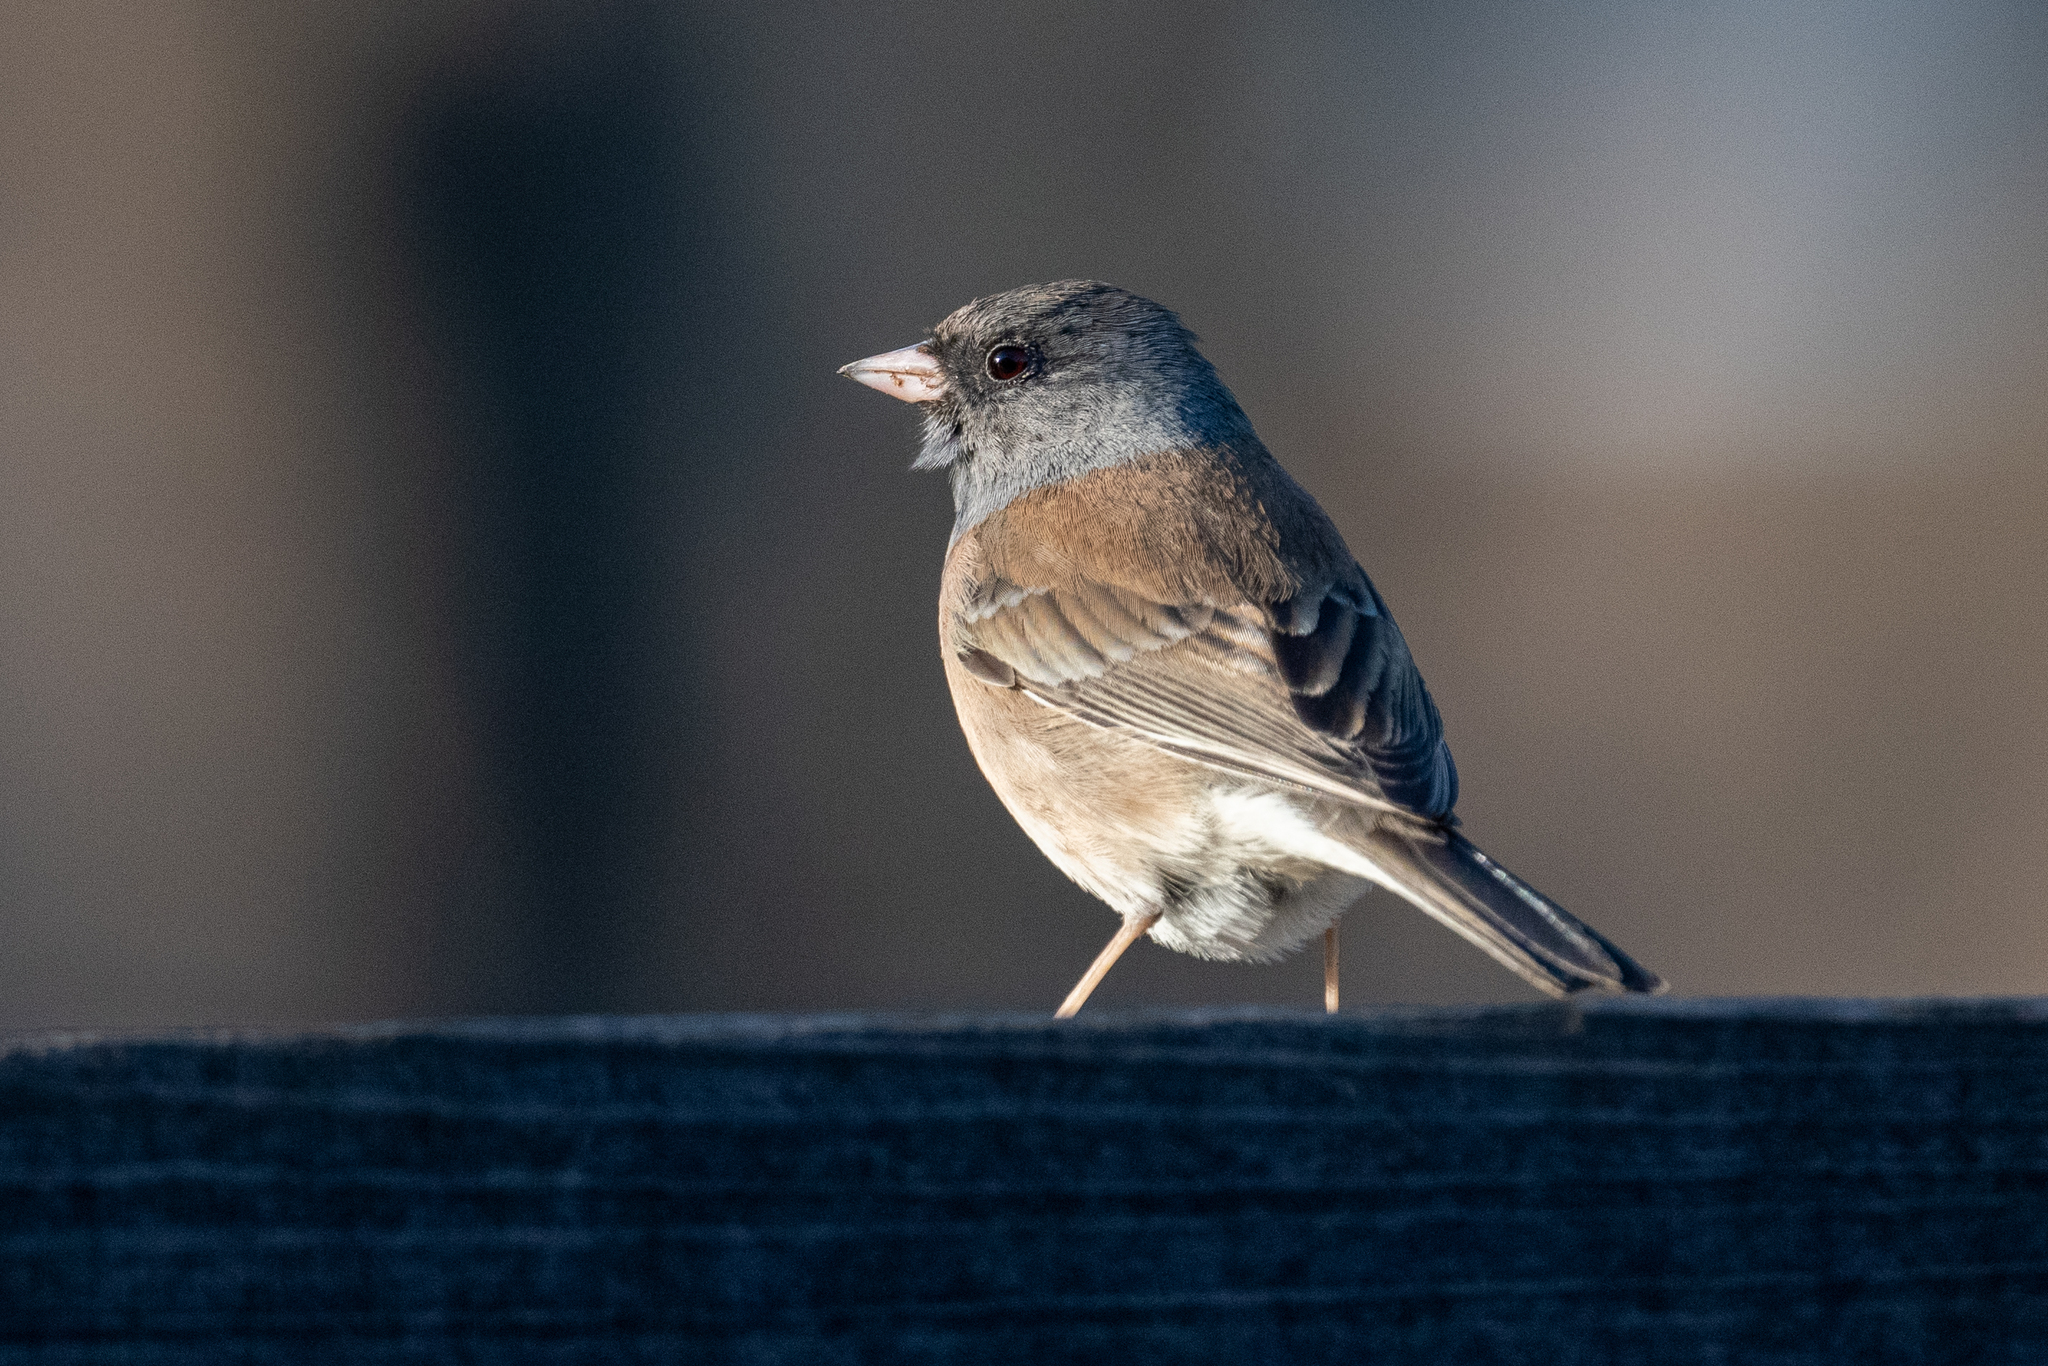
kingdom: Animalia
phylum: Chordata
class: Aves
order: Passeriformes
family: Passerellidae
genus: Junco
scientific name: Junco hyemalis
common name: Dark-eyed junco
